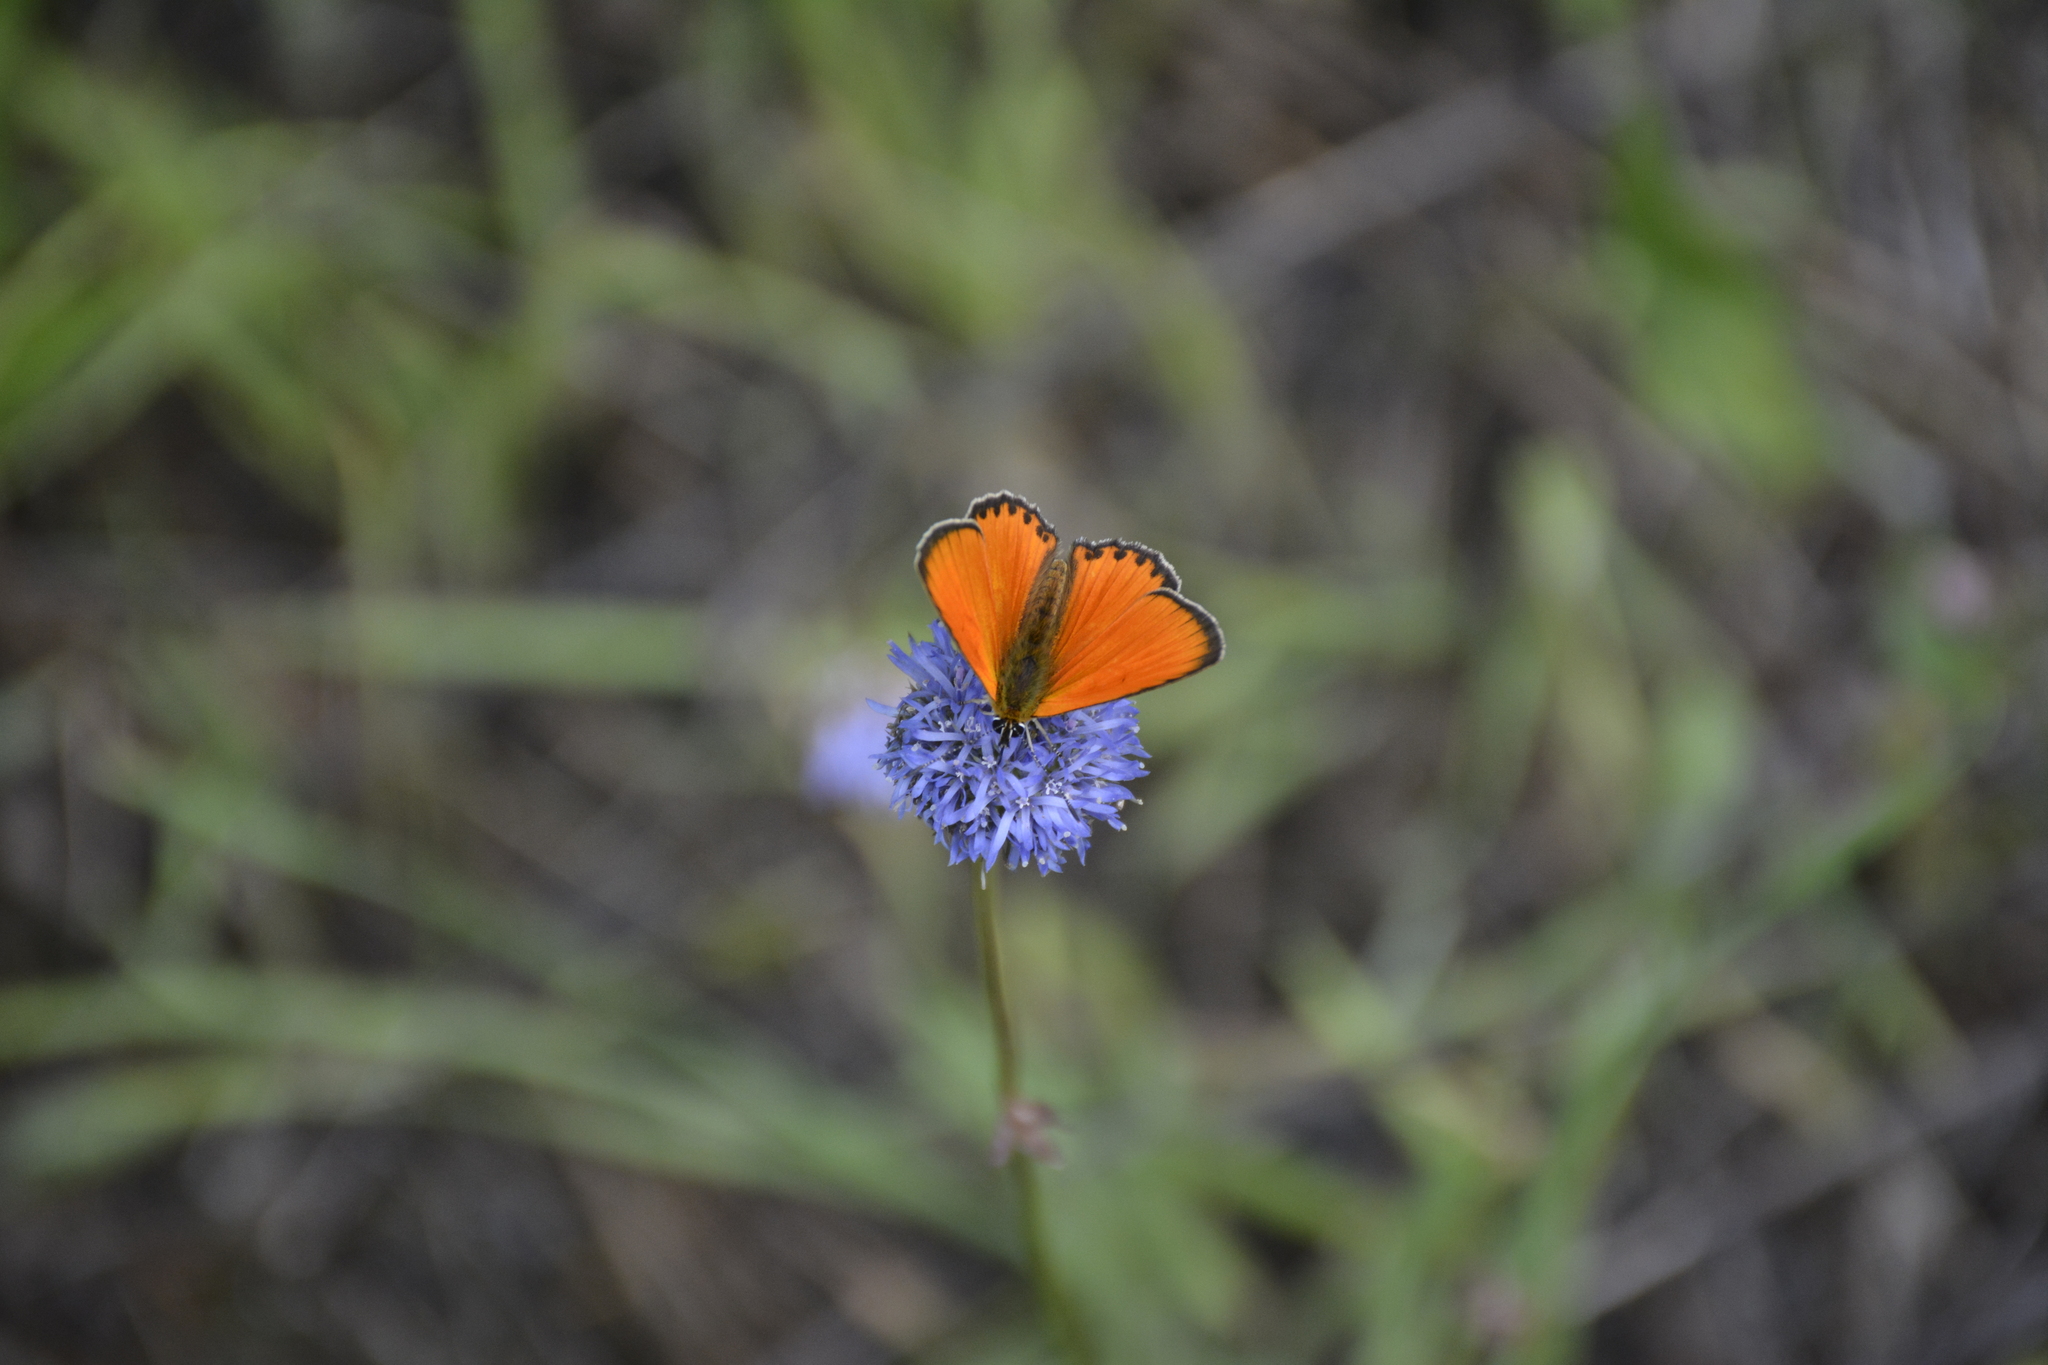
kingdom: Animalia
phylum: Arthropoda
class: Insecta
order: Lepidoptera
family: Lycaenidae
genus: Lycaena
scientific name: Lycaena virgaureae
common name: Scarce copper
